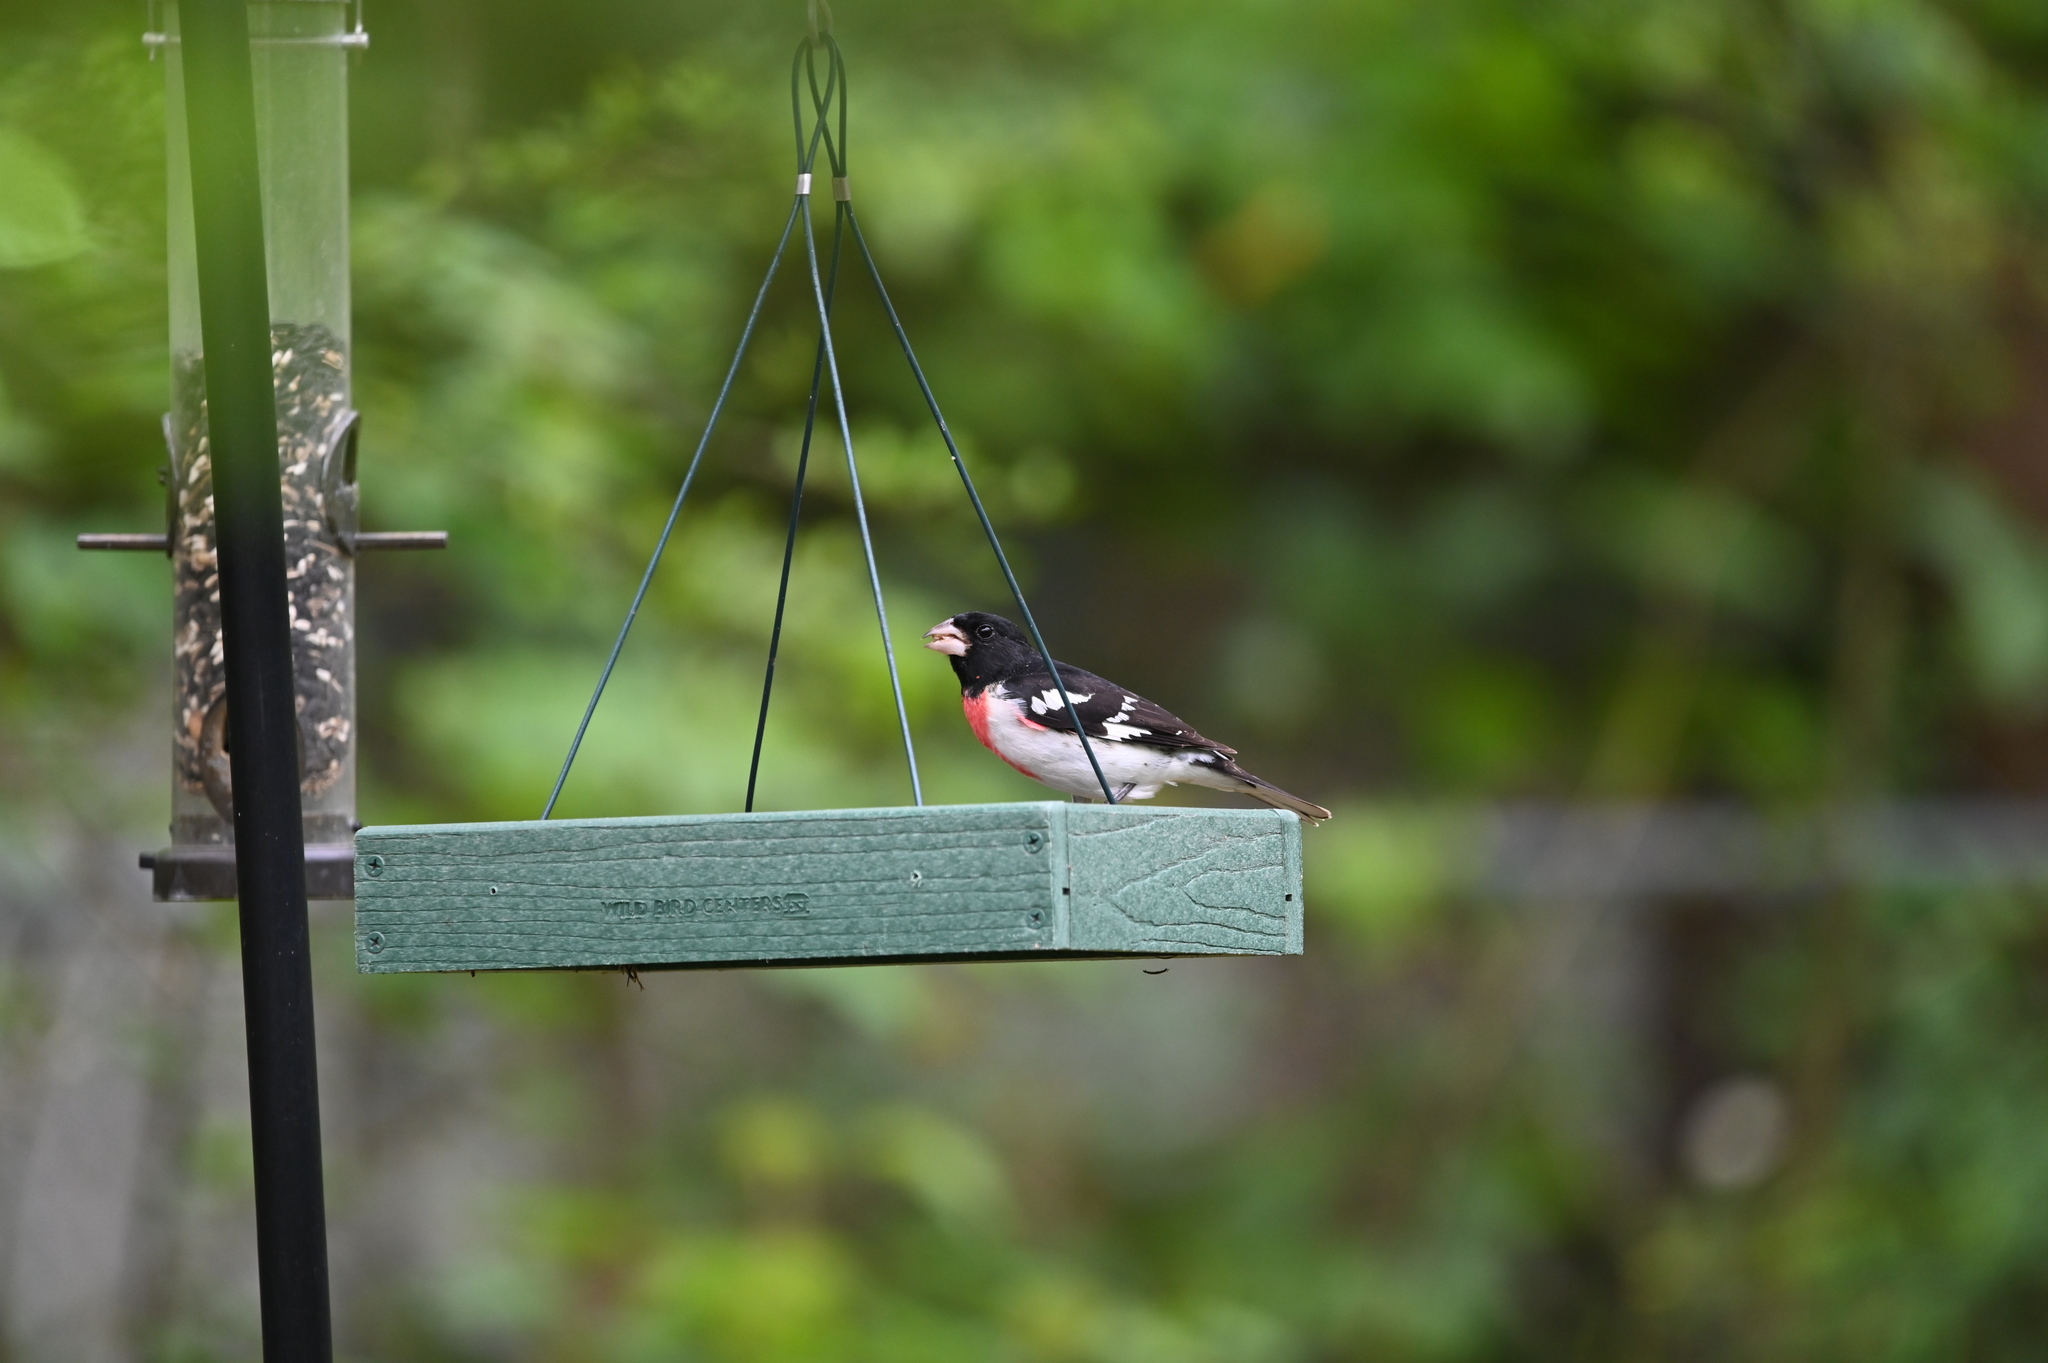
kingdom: Animalia
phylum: Chordata
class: Aves
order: Passeriformes
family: Cardinalidae
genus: Pheucticus
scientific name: Pheucticus ludovicianus
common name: Rose-breasted grosbeak
